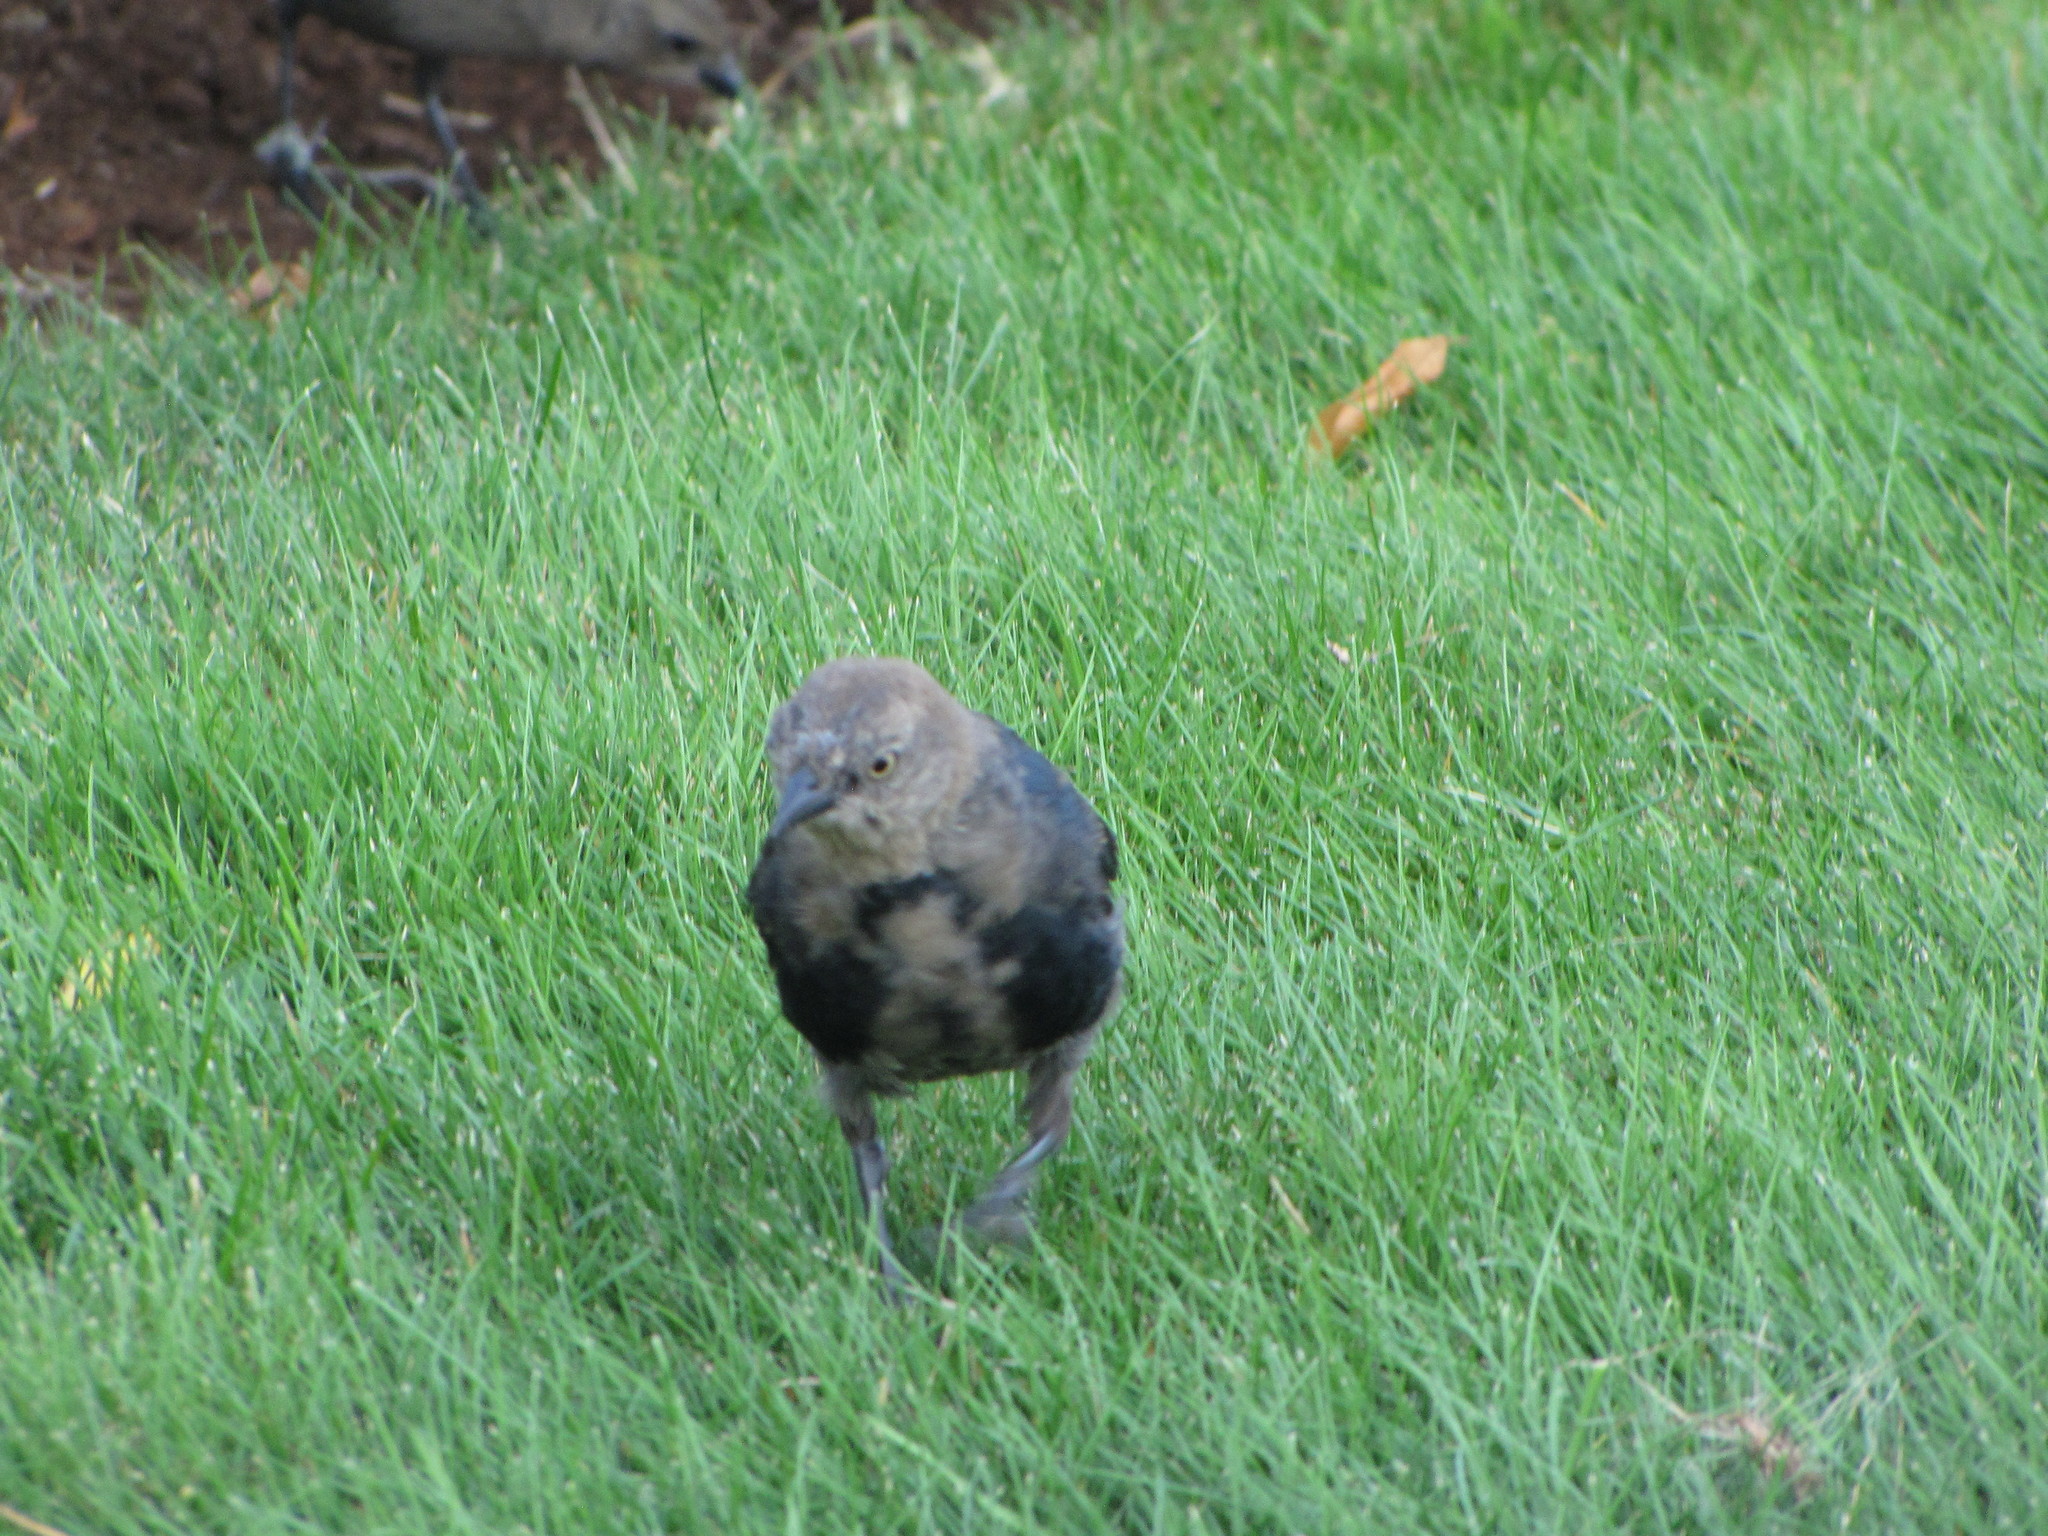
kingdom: Animalia
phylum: Chordata
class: Aves
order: Passeriformes
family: Icteridae
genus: Euphagus
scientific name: Euphagus cyanocephalus
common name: Brewer's blackbird
